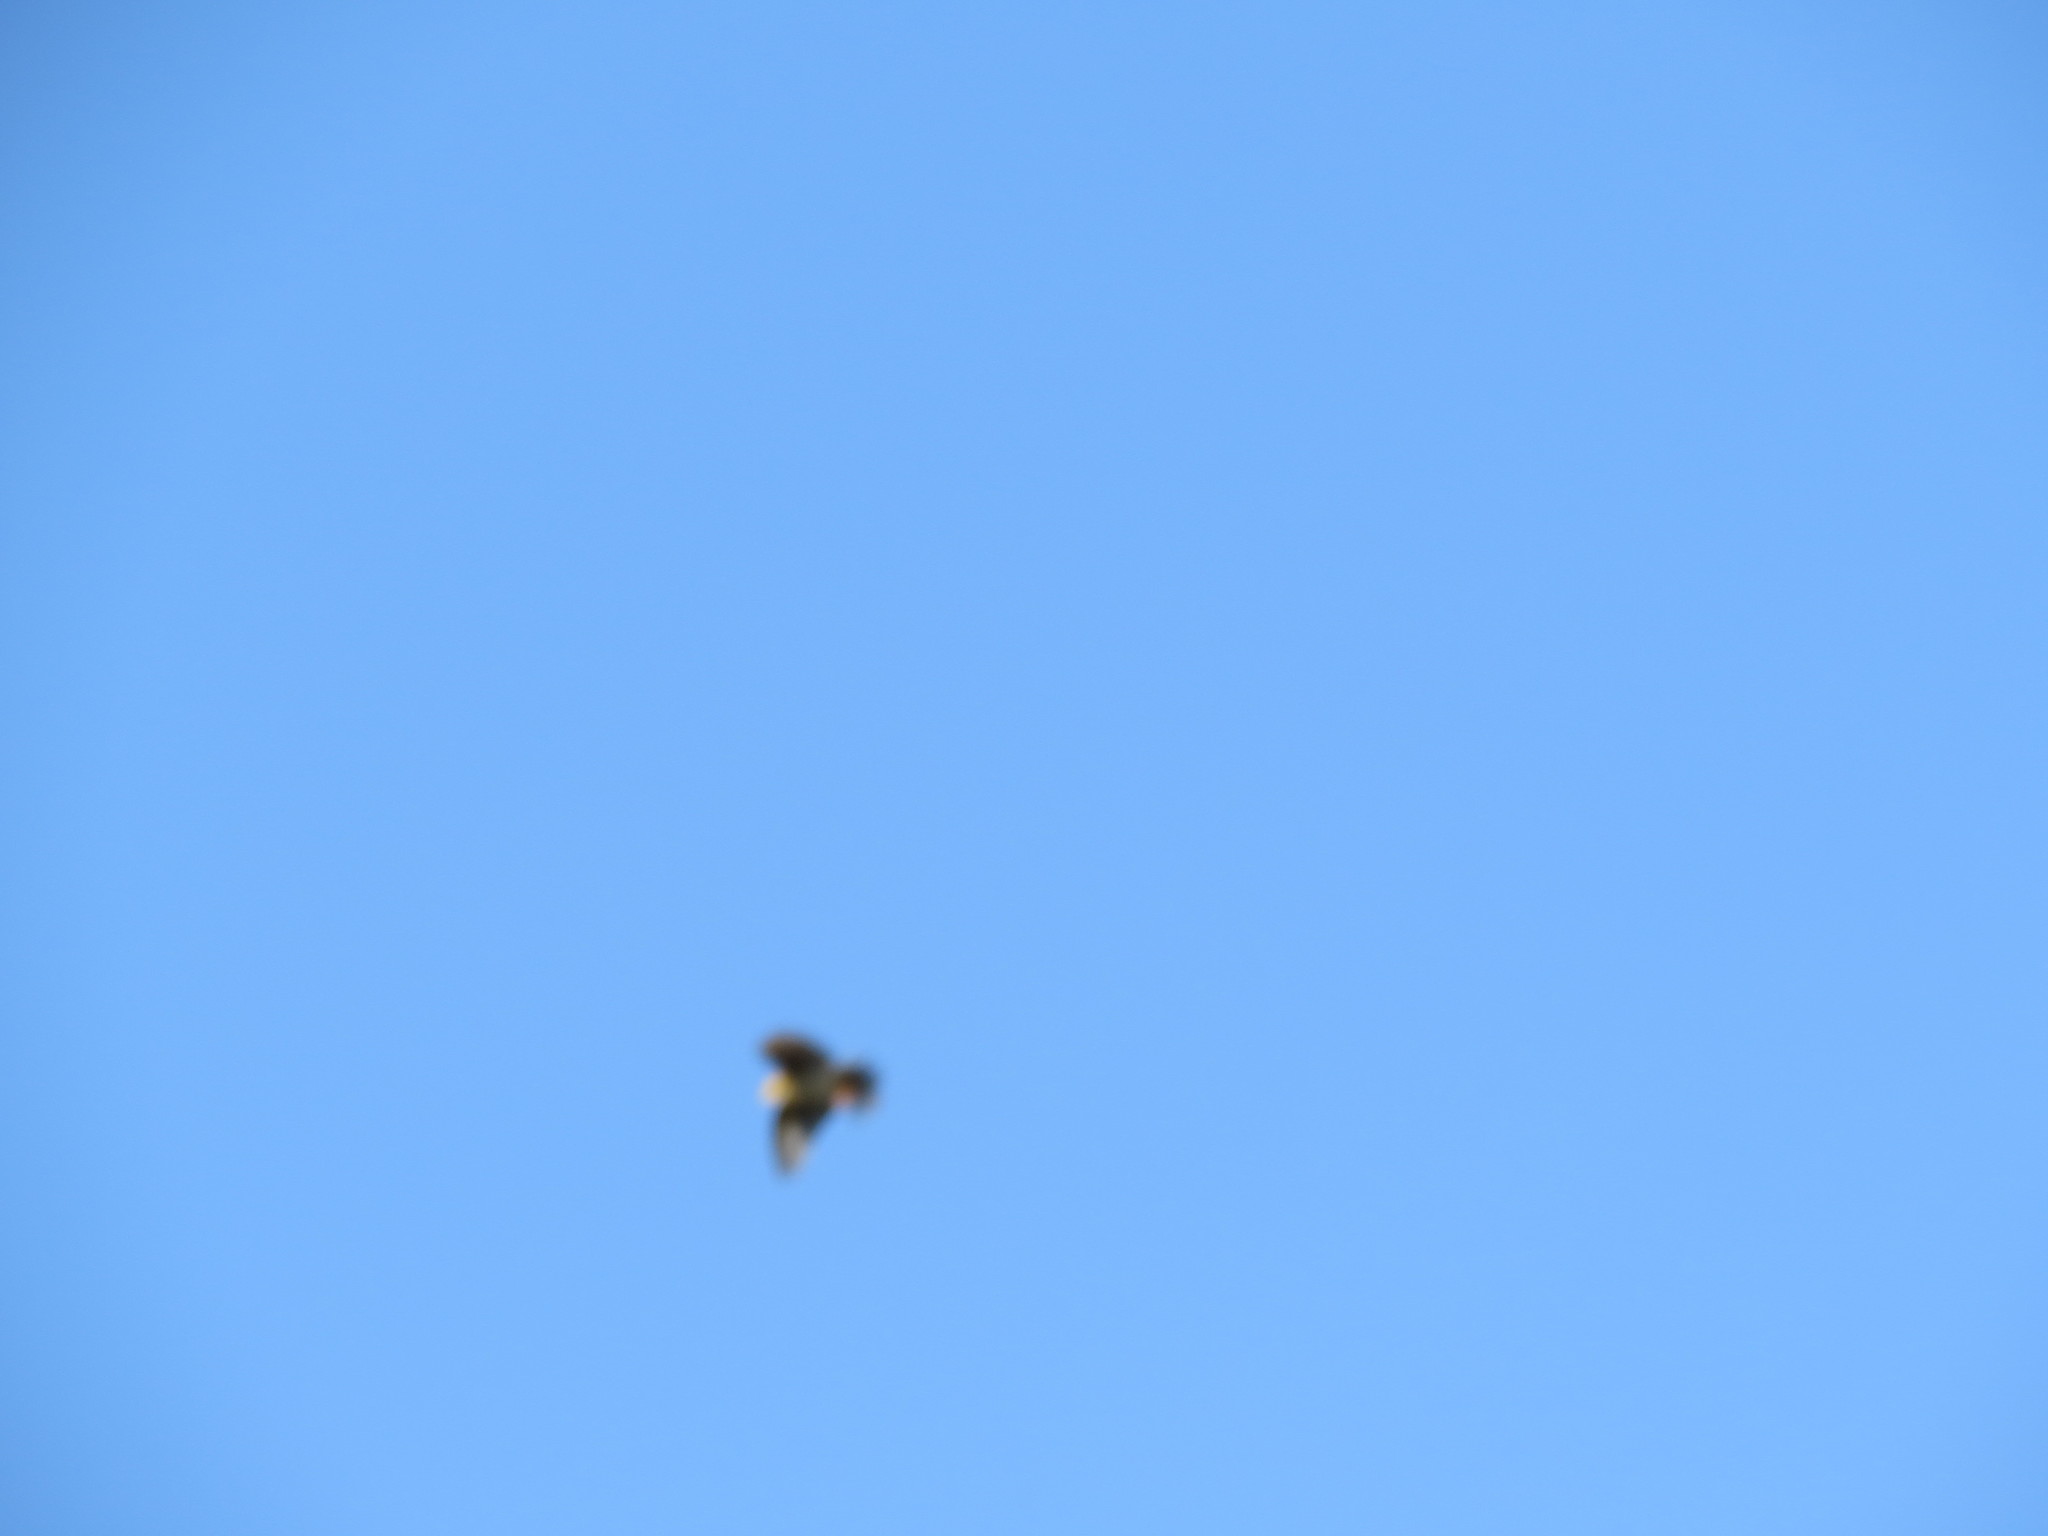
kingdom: Animalia
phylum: Chordata
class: Aves
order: Passeriformes
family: Motacillidae
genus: Anthus
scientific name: Anthus trivialis
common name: Tree pipit
